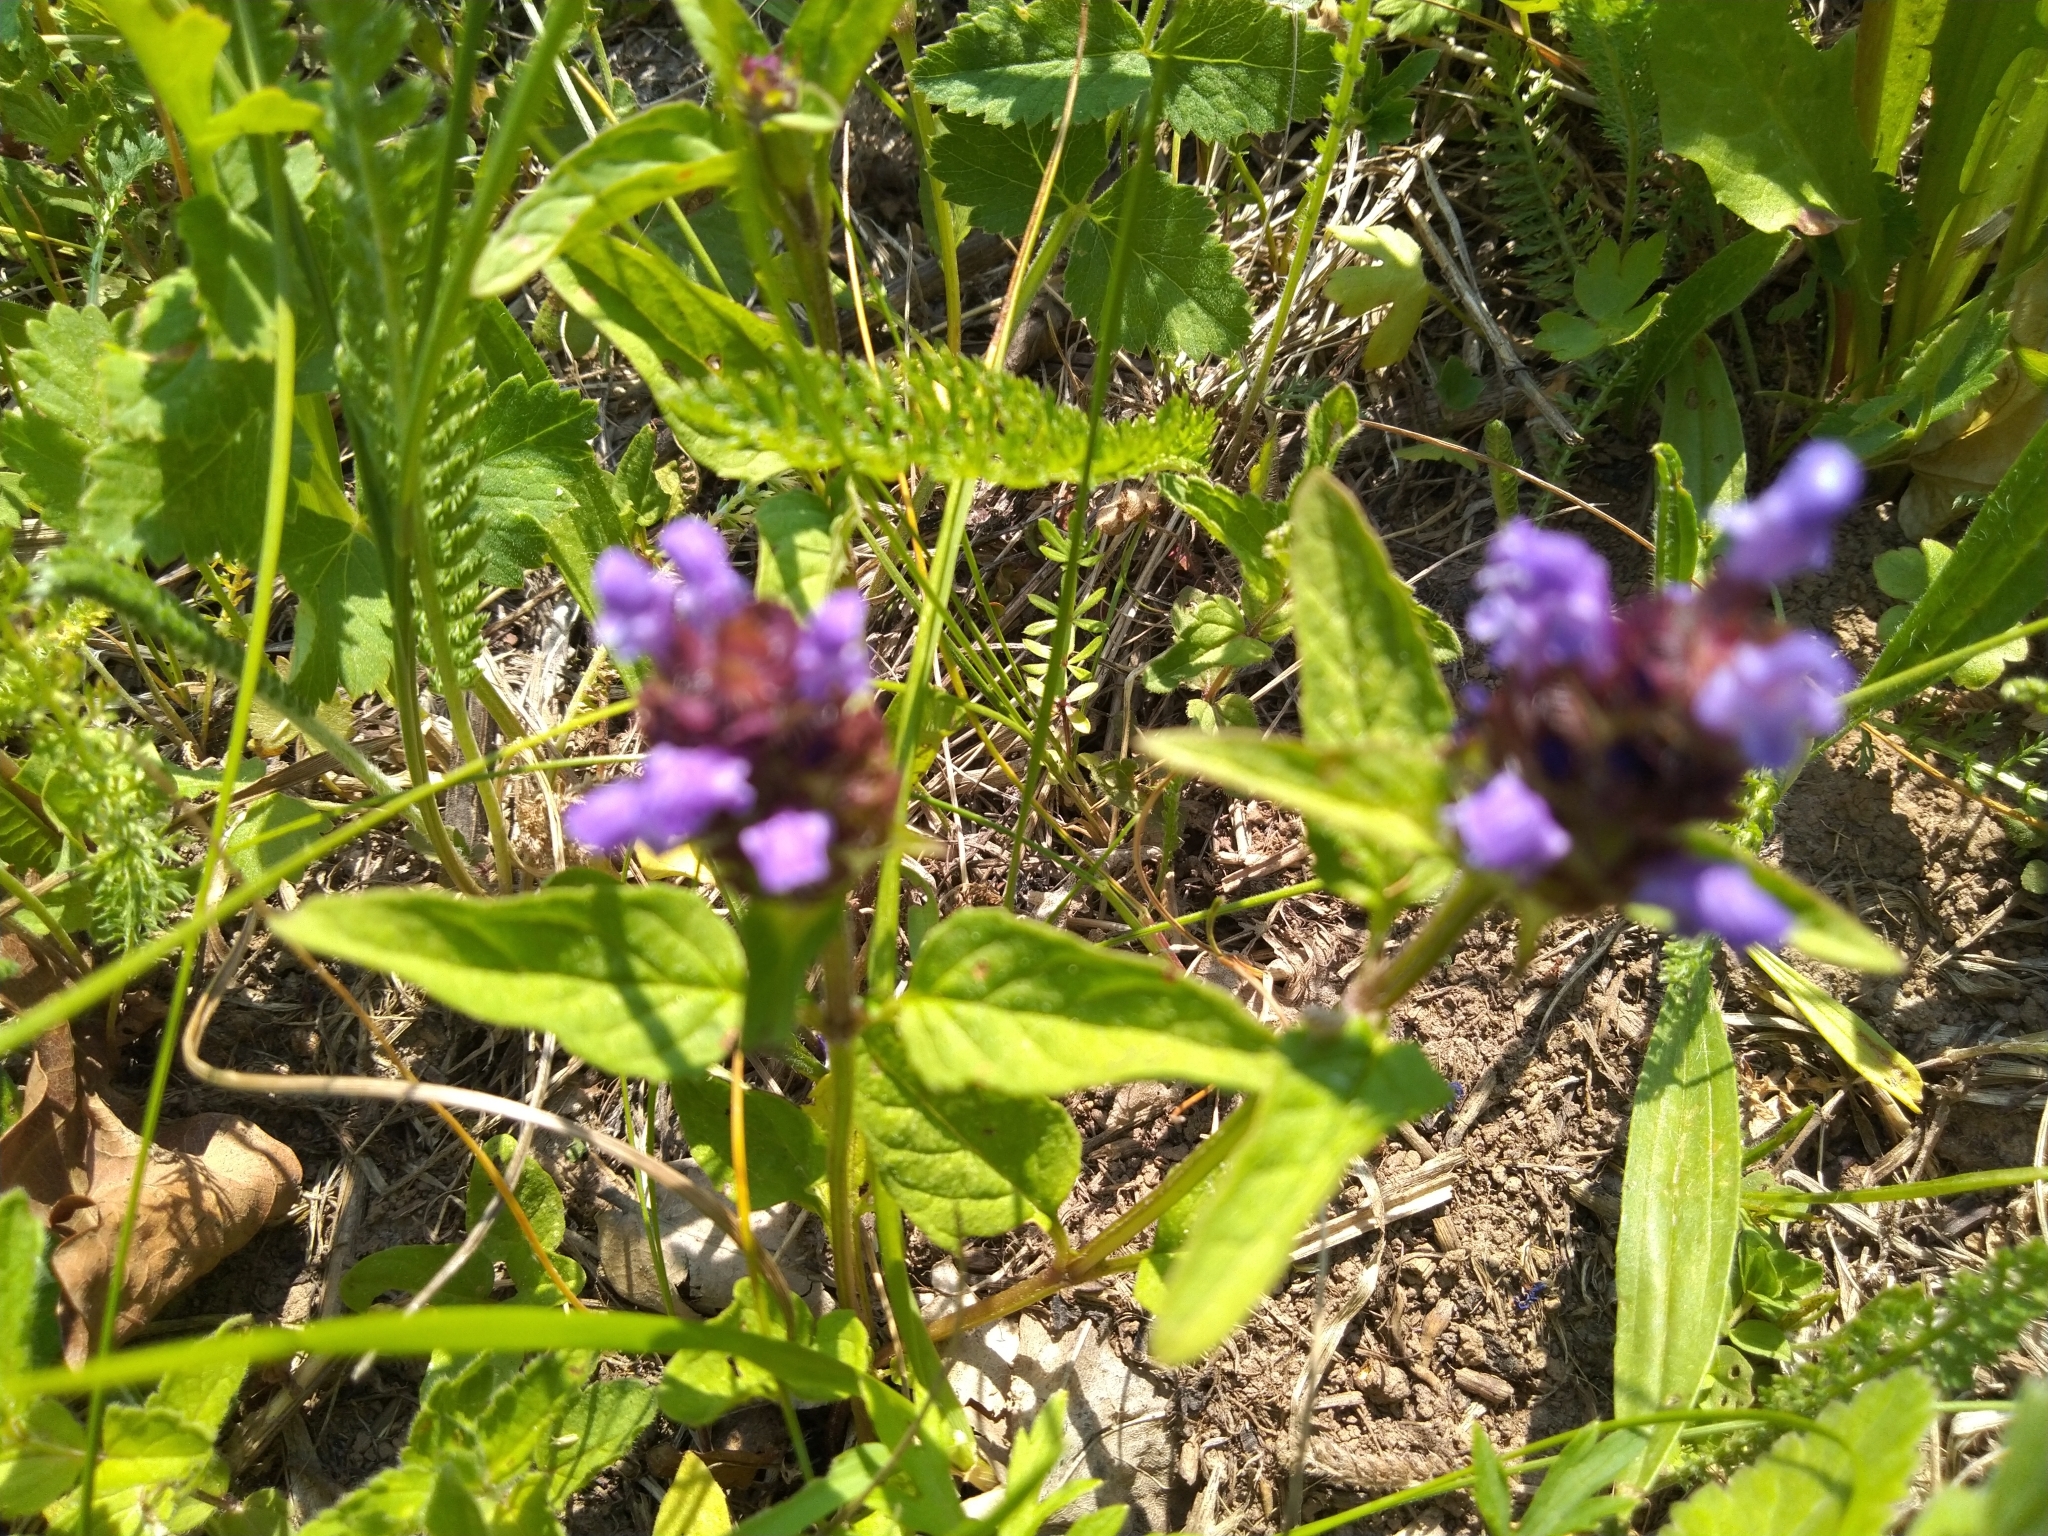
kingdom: Plantae
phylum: Tracheophyta
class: Magnoliopsida
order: Lamiales
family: Lamiaceae
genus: Prunella
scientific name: Prunella vulgaris
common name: Heal-all
